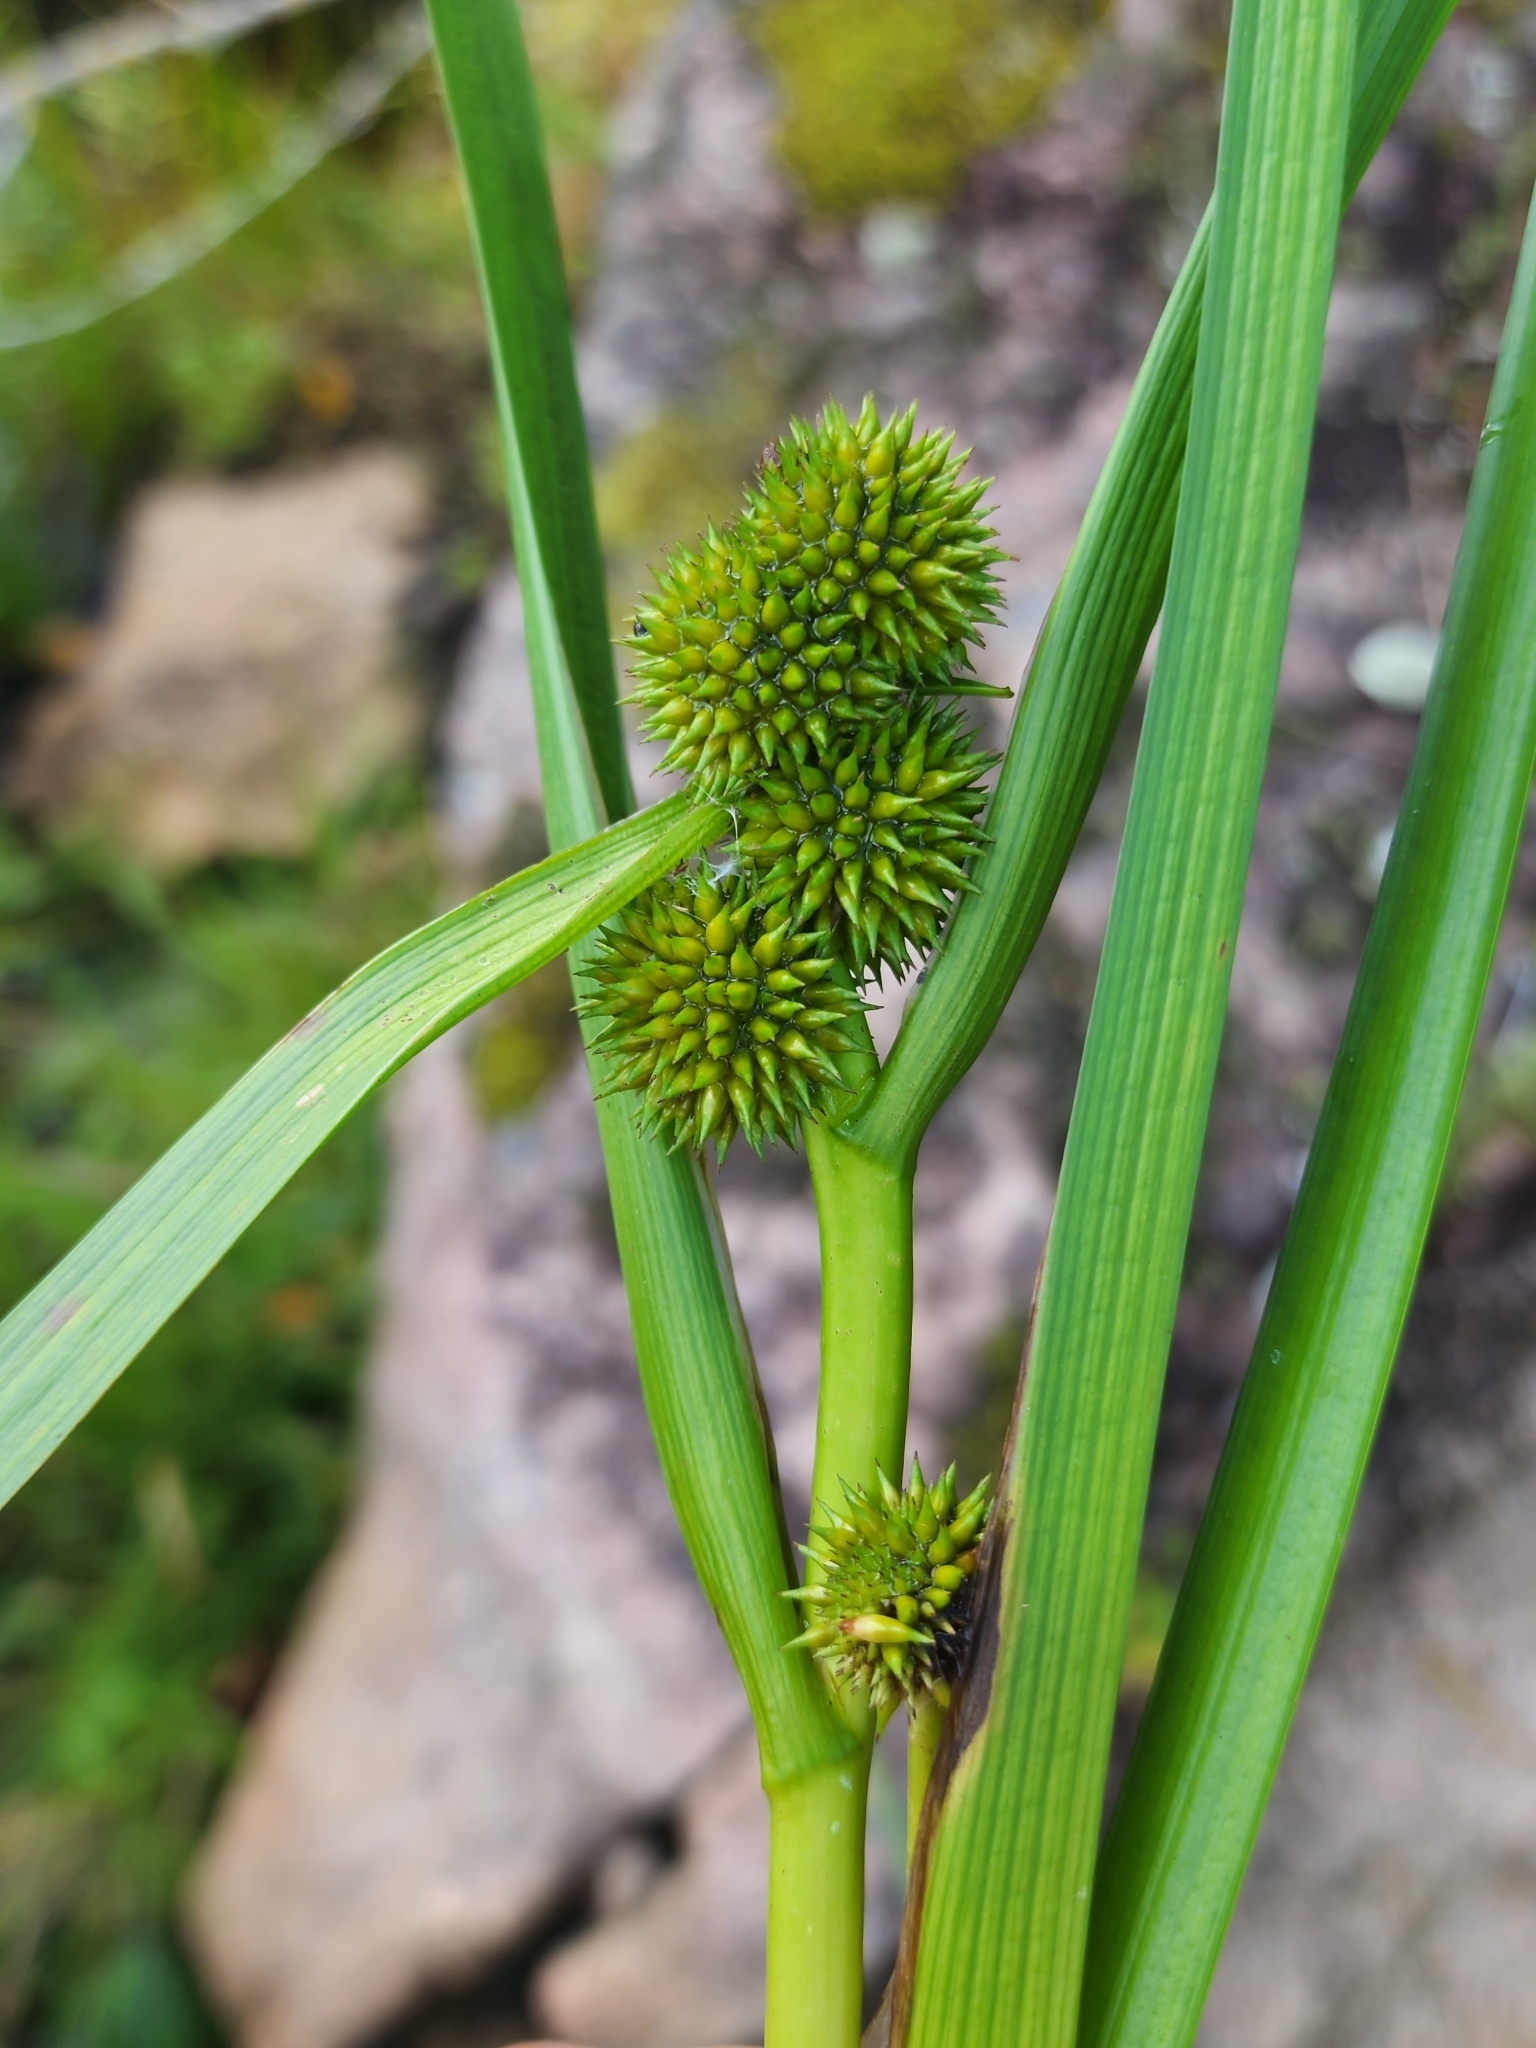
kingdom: Plantae
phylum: Tracheophyta
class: Liliopsida
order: Poales
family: Typhaceae
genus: Sparganium
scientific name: Sparganium glomeratum
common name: Clustered burreed
